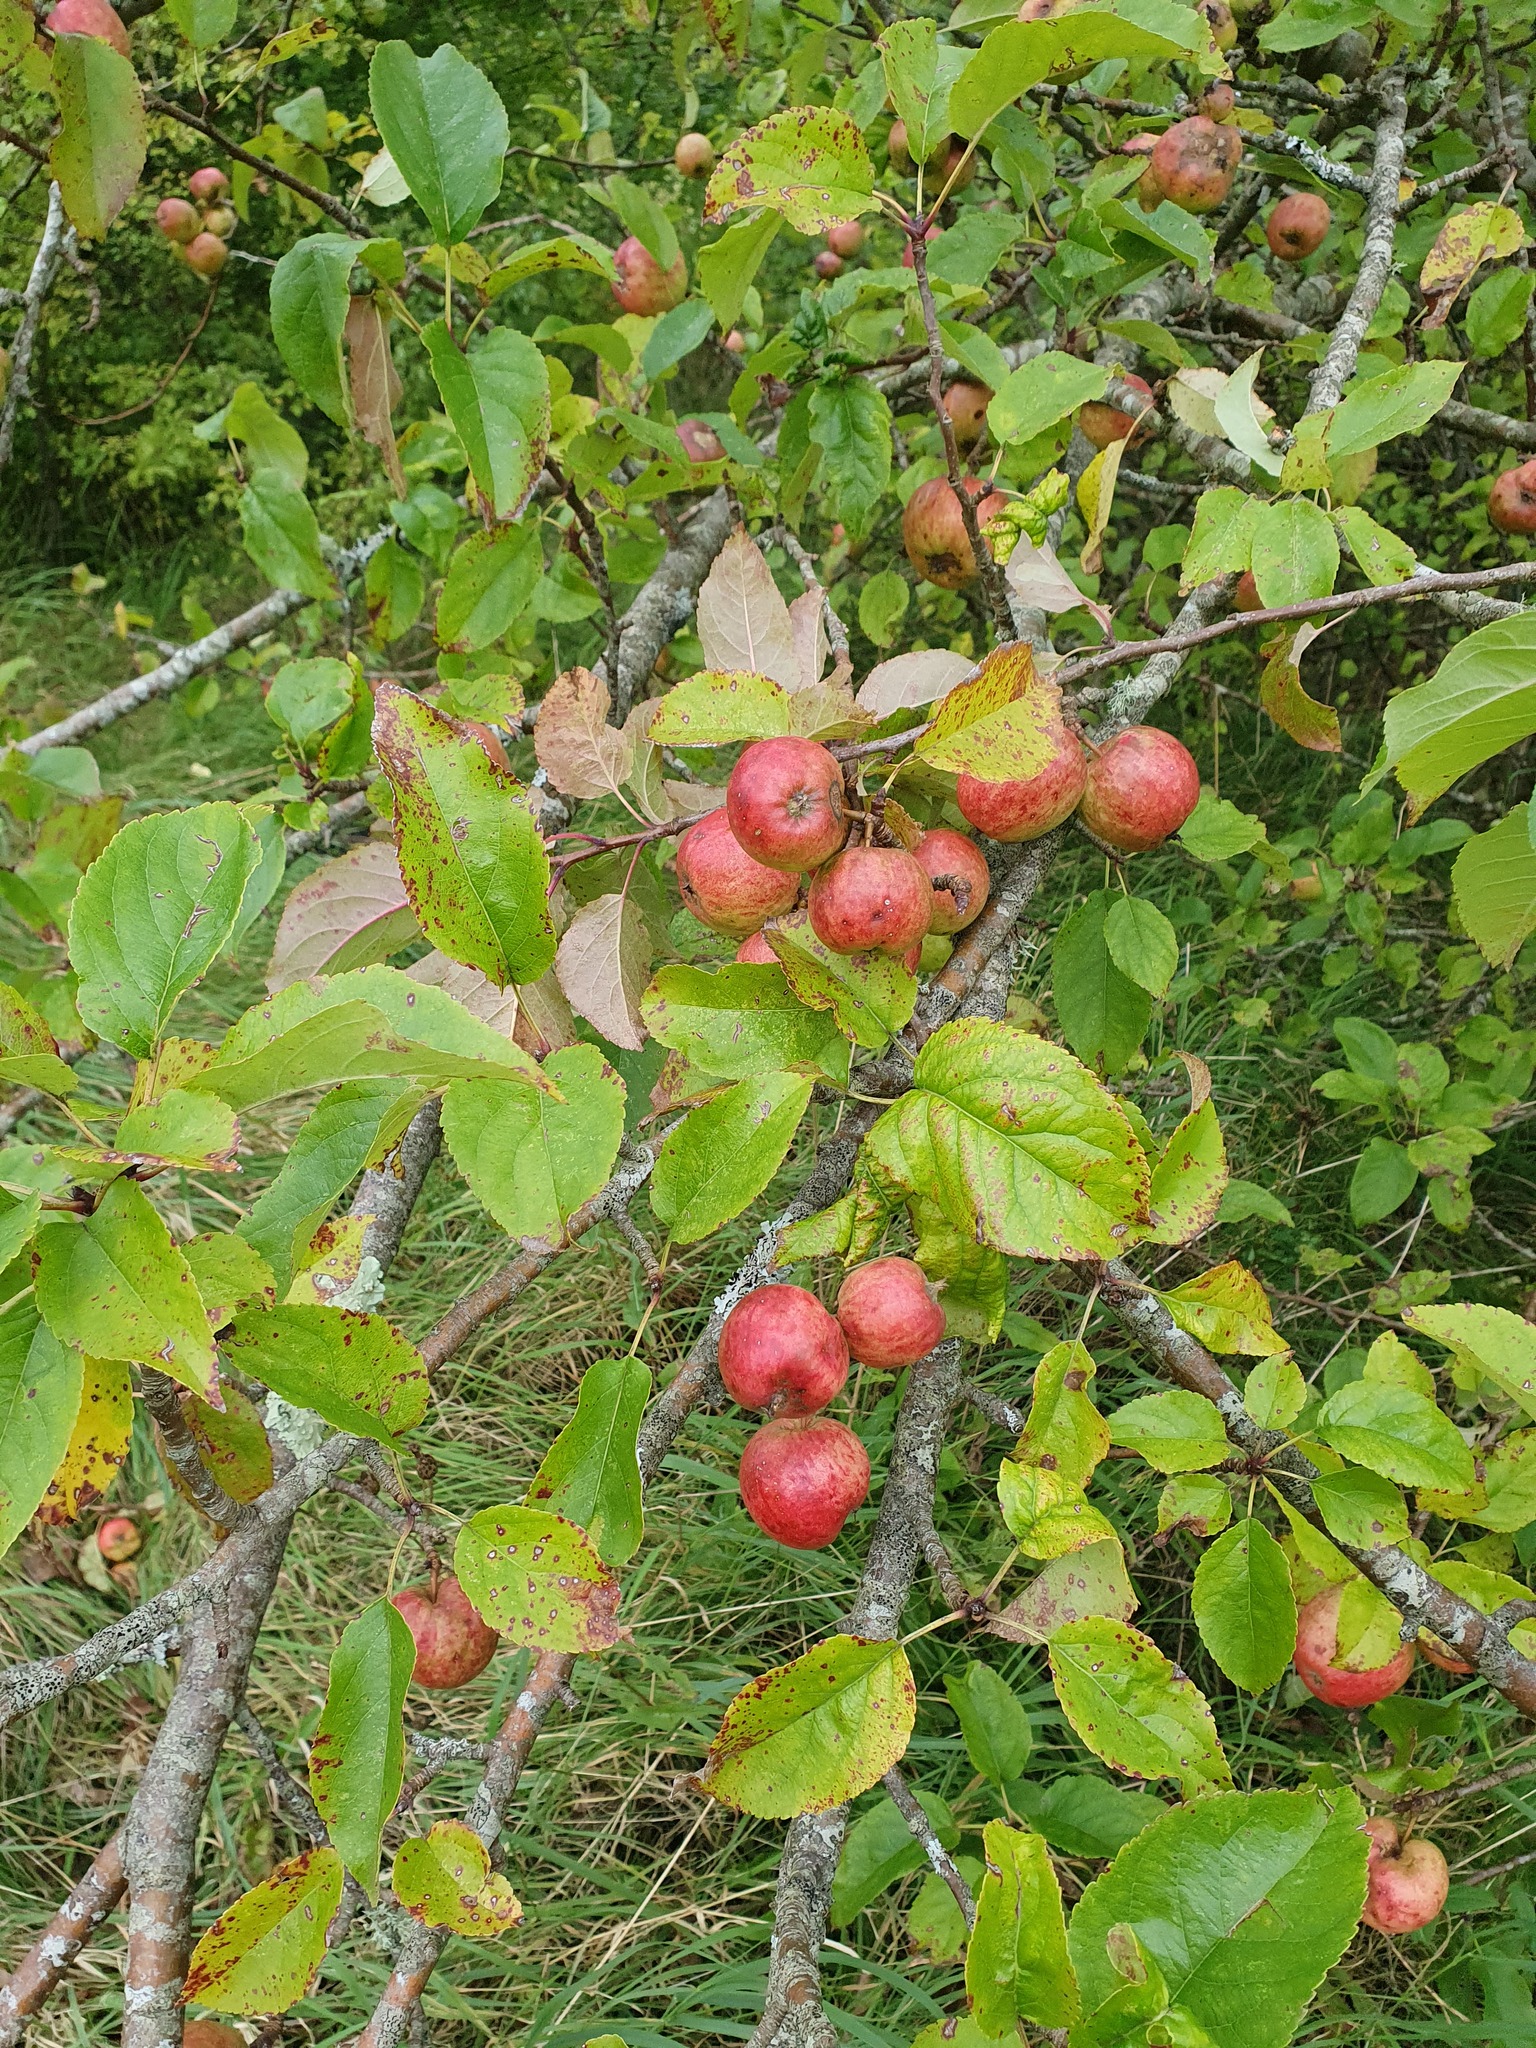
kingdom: Plantae
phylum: Tracheophyta
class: Magnoliopsida
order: Rosales
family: Rosaceae
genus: Malus
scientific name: Malus domestica
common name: Apple
